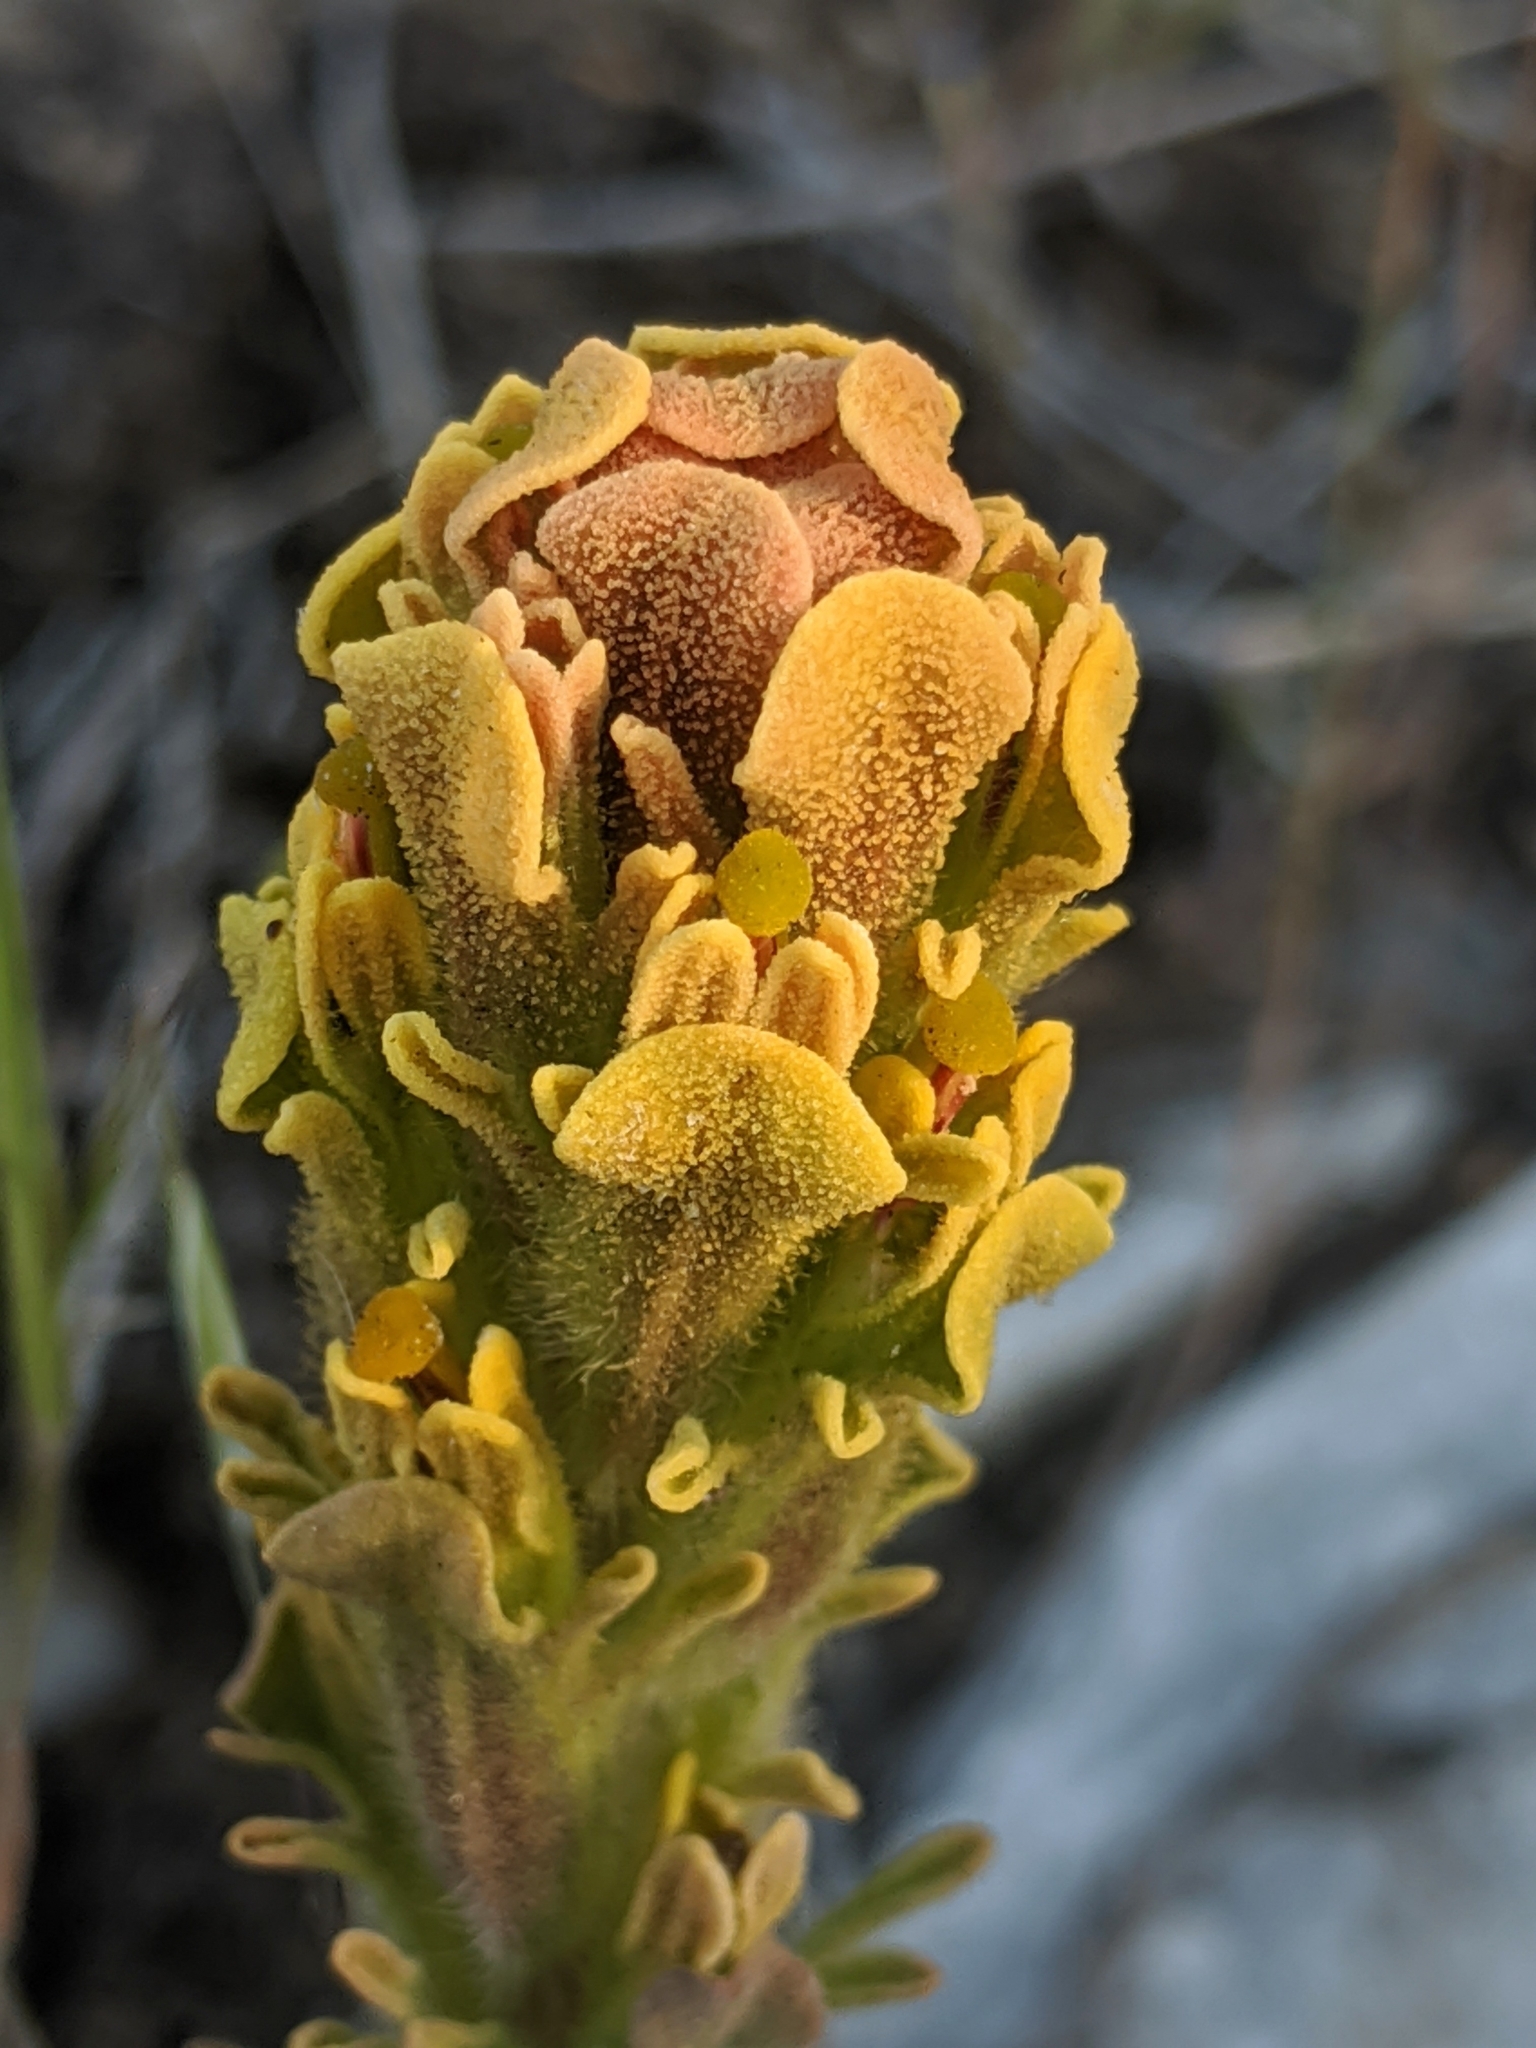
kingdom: Plantae
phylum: Tracheophyta
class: Magnoliopsida
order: Lamiales
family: Orobanchaceae
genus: Castilleja
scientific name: Castilleja cinerea
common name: Ash-gray indian paintbrush
